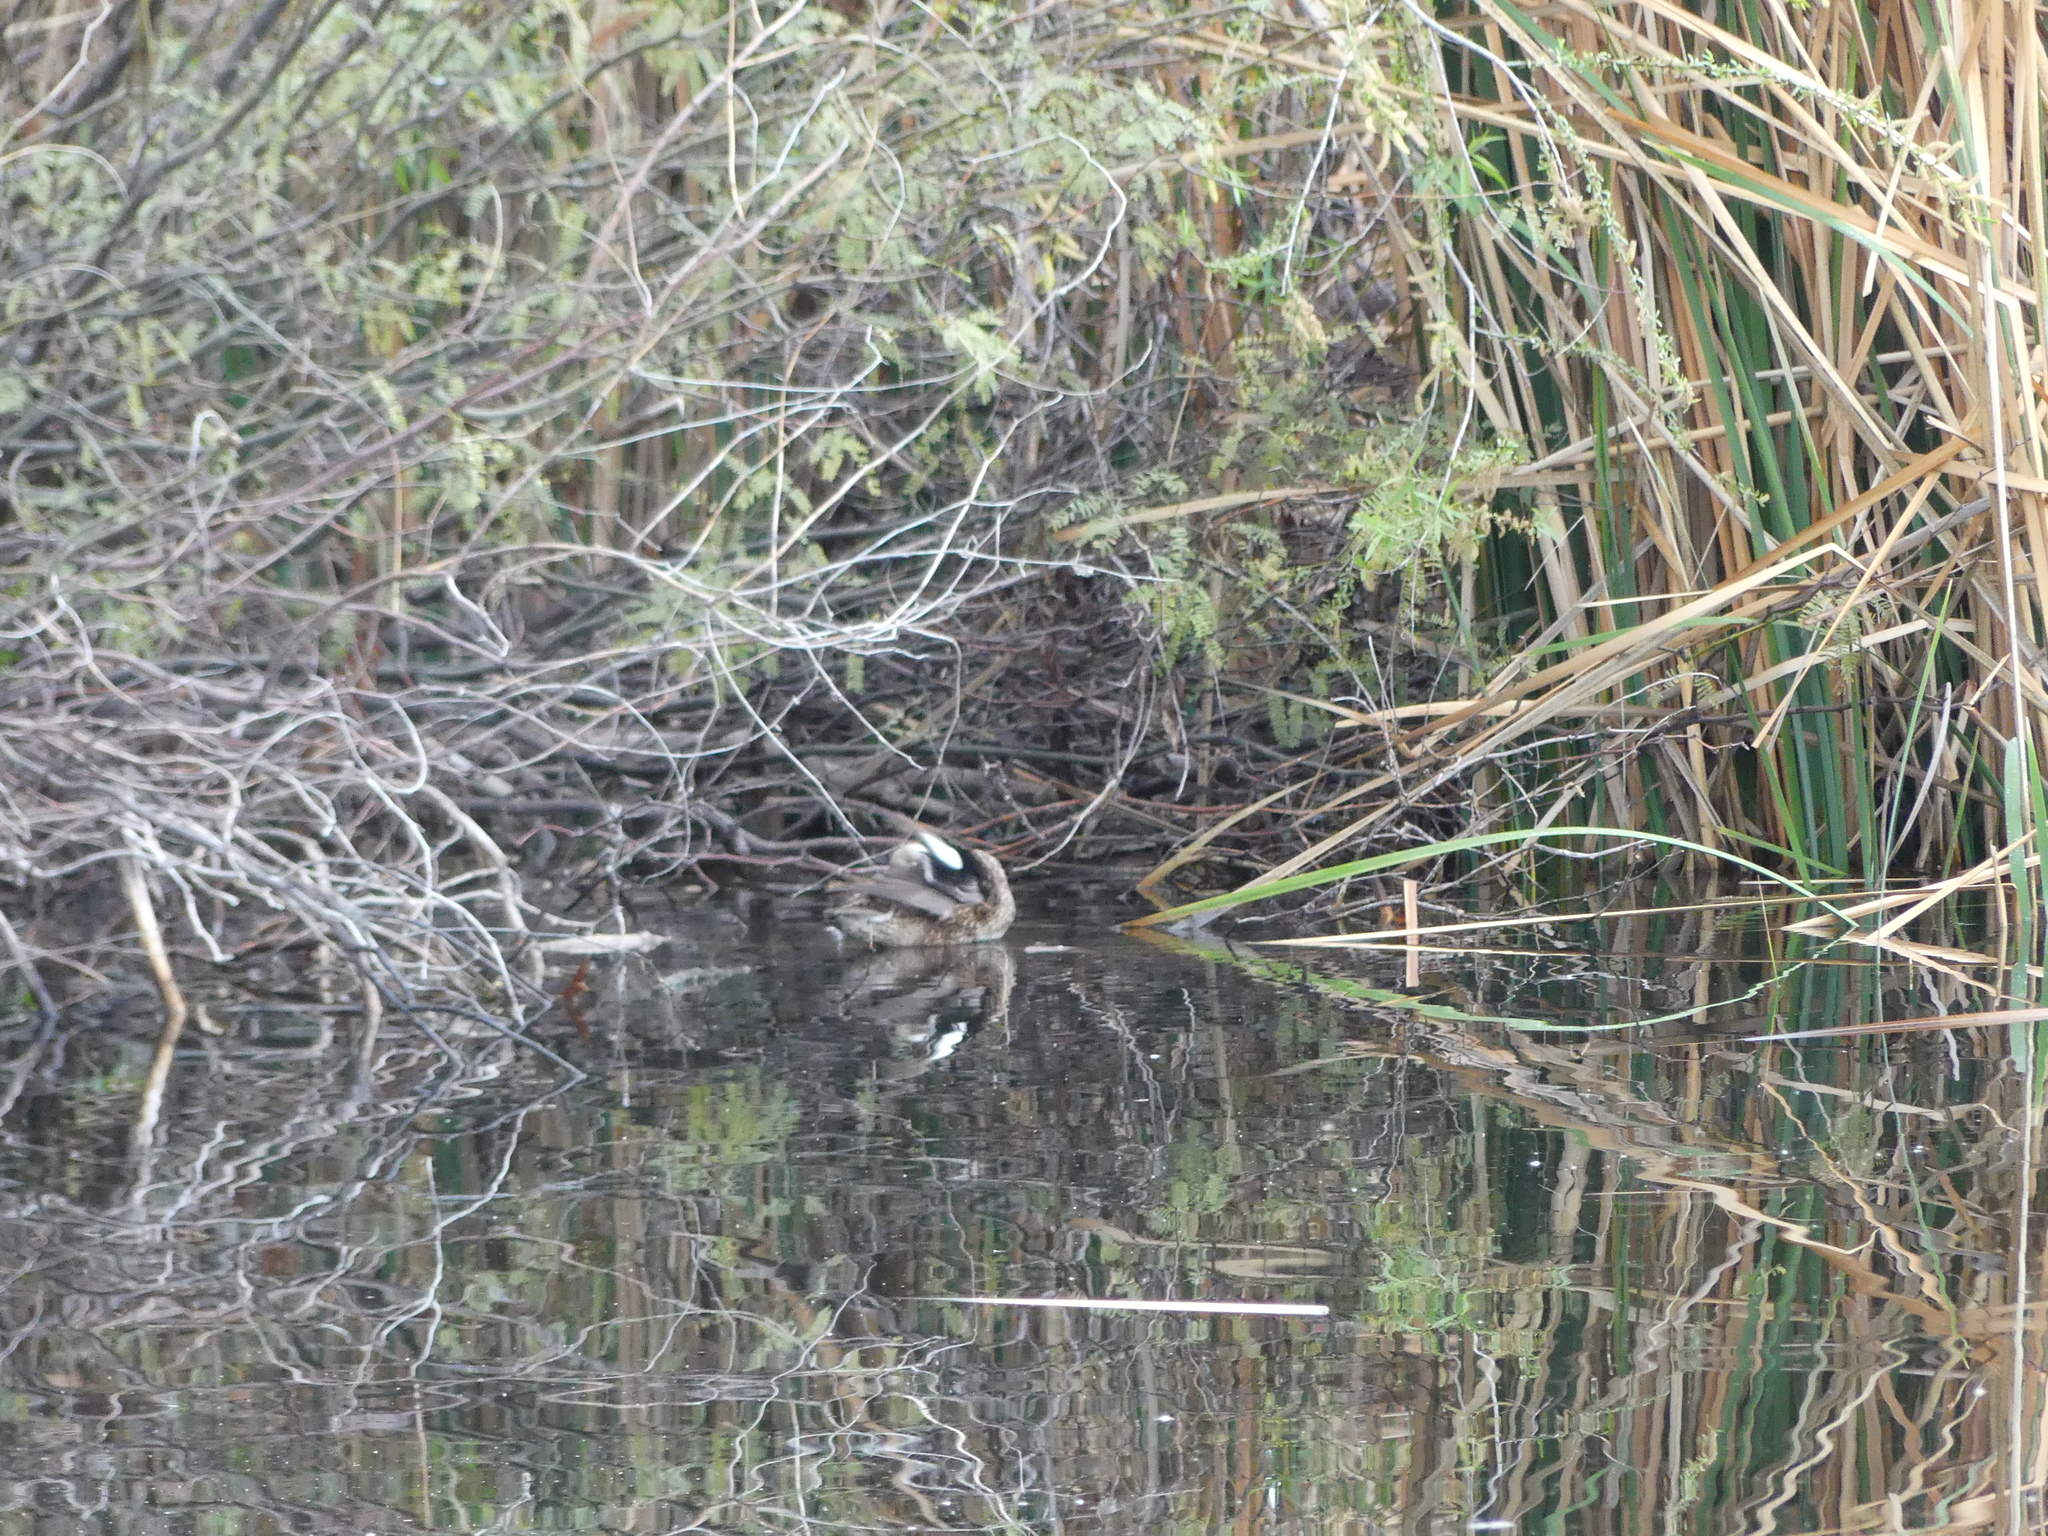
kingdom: Animalia
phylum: Chordata
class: Aves
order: Anseriformes
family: Anatidae
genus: Mareca
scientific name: Mareca strepera
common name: Gadwall
